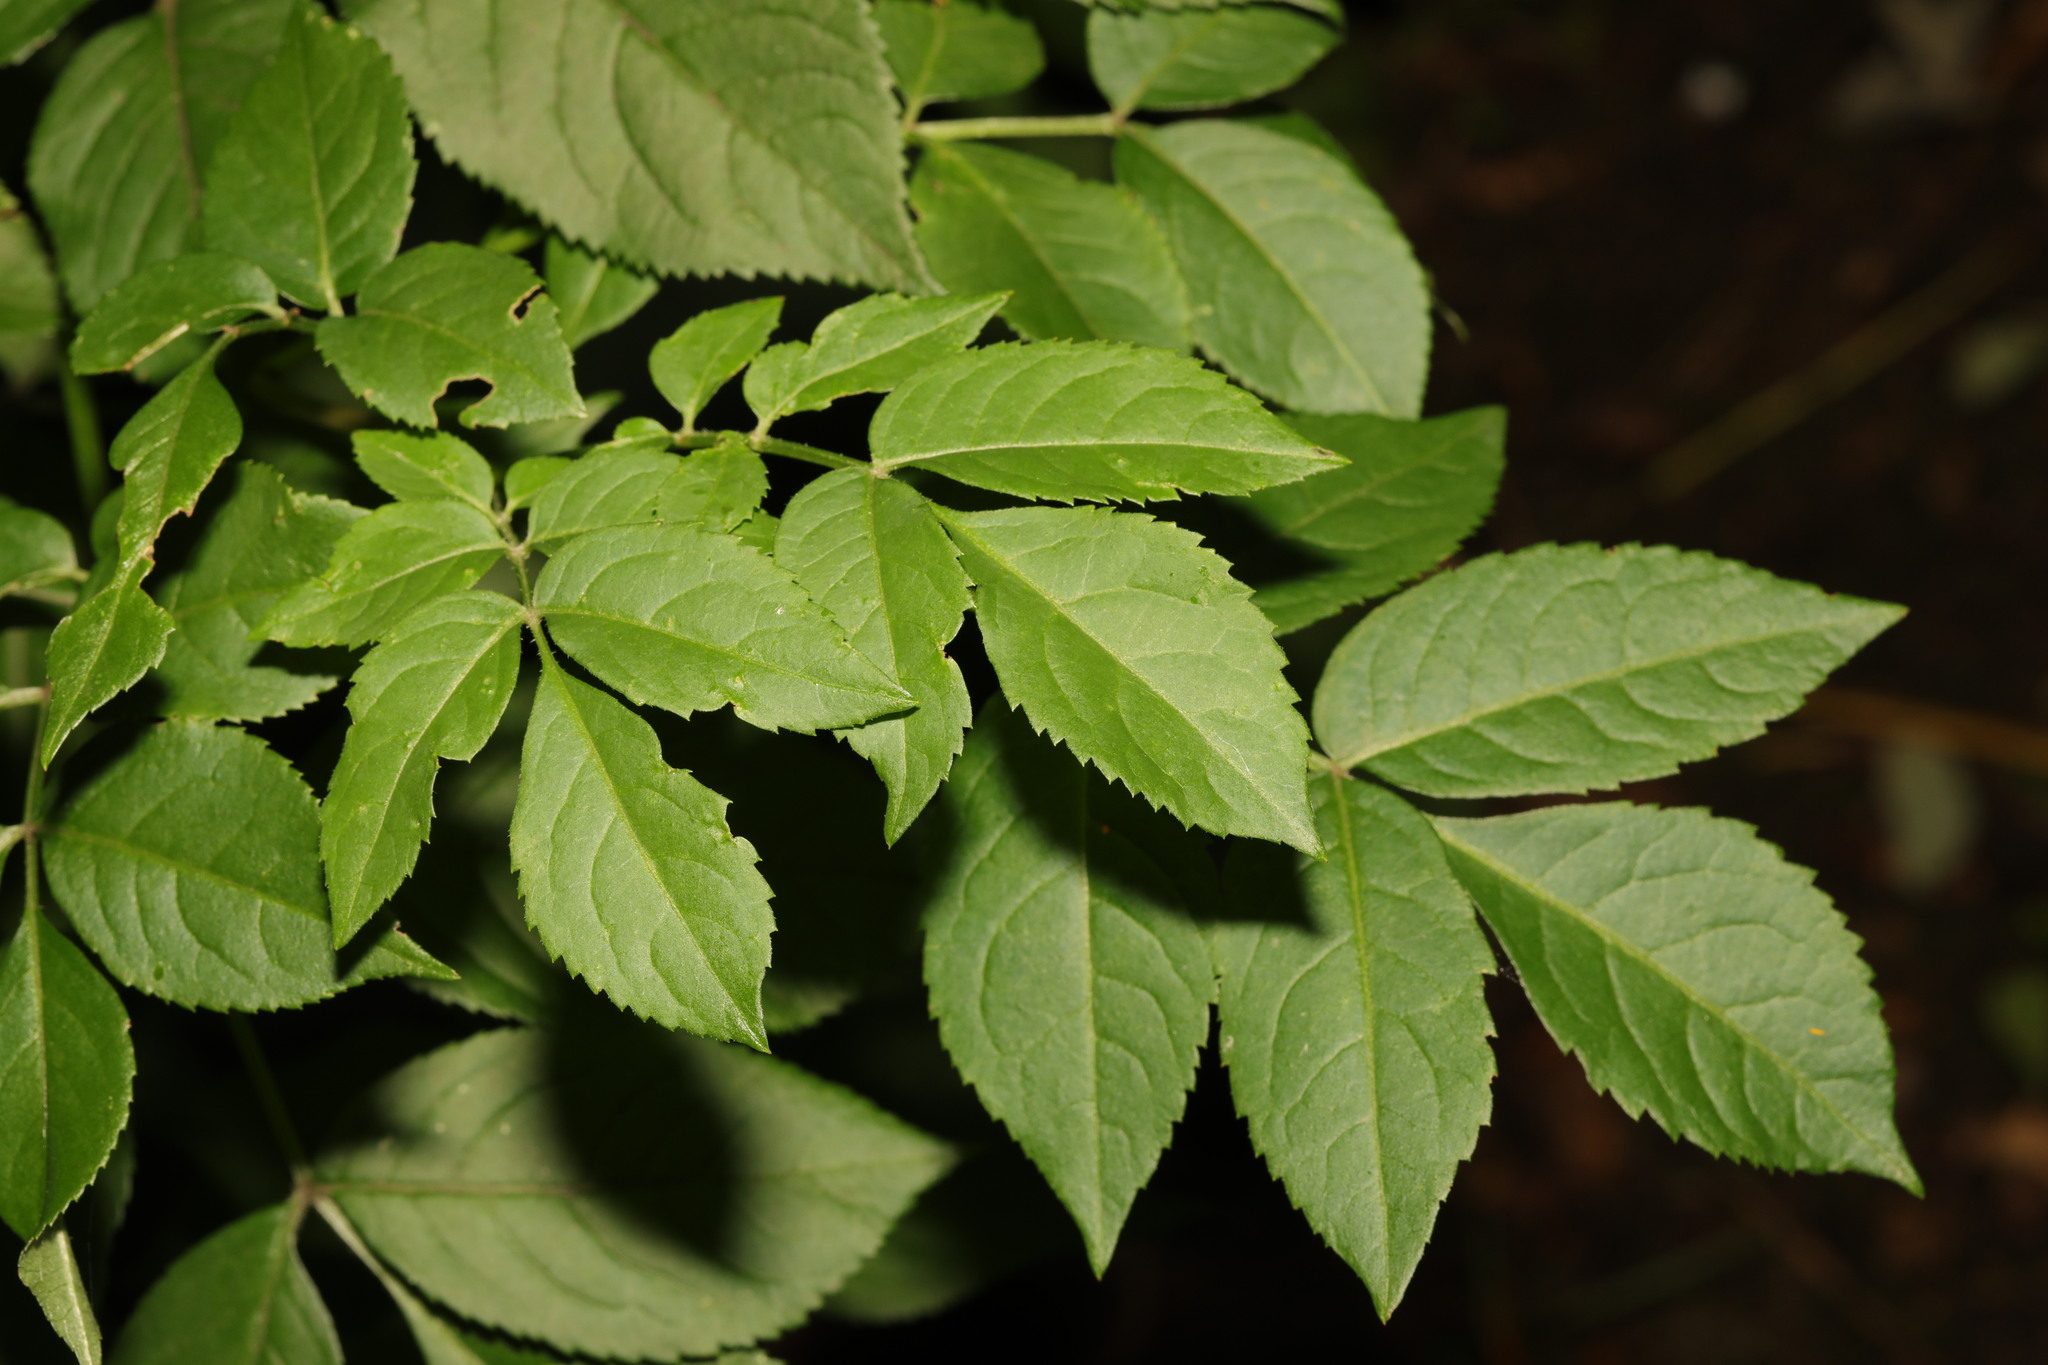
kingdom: Plantae
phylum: Tracheophyta
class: Magnoliopsida
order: Dipsacales
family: Viburnaceae
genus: Sambucus
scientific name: Sambucus nigra
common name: Elder
